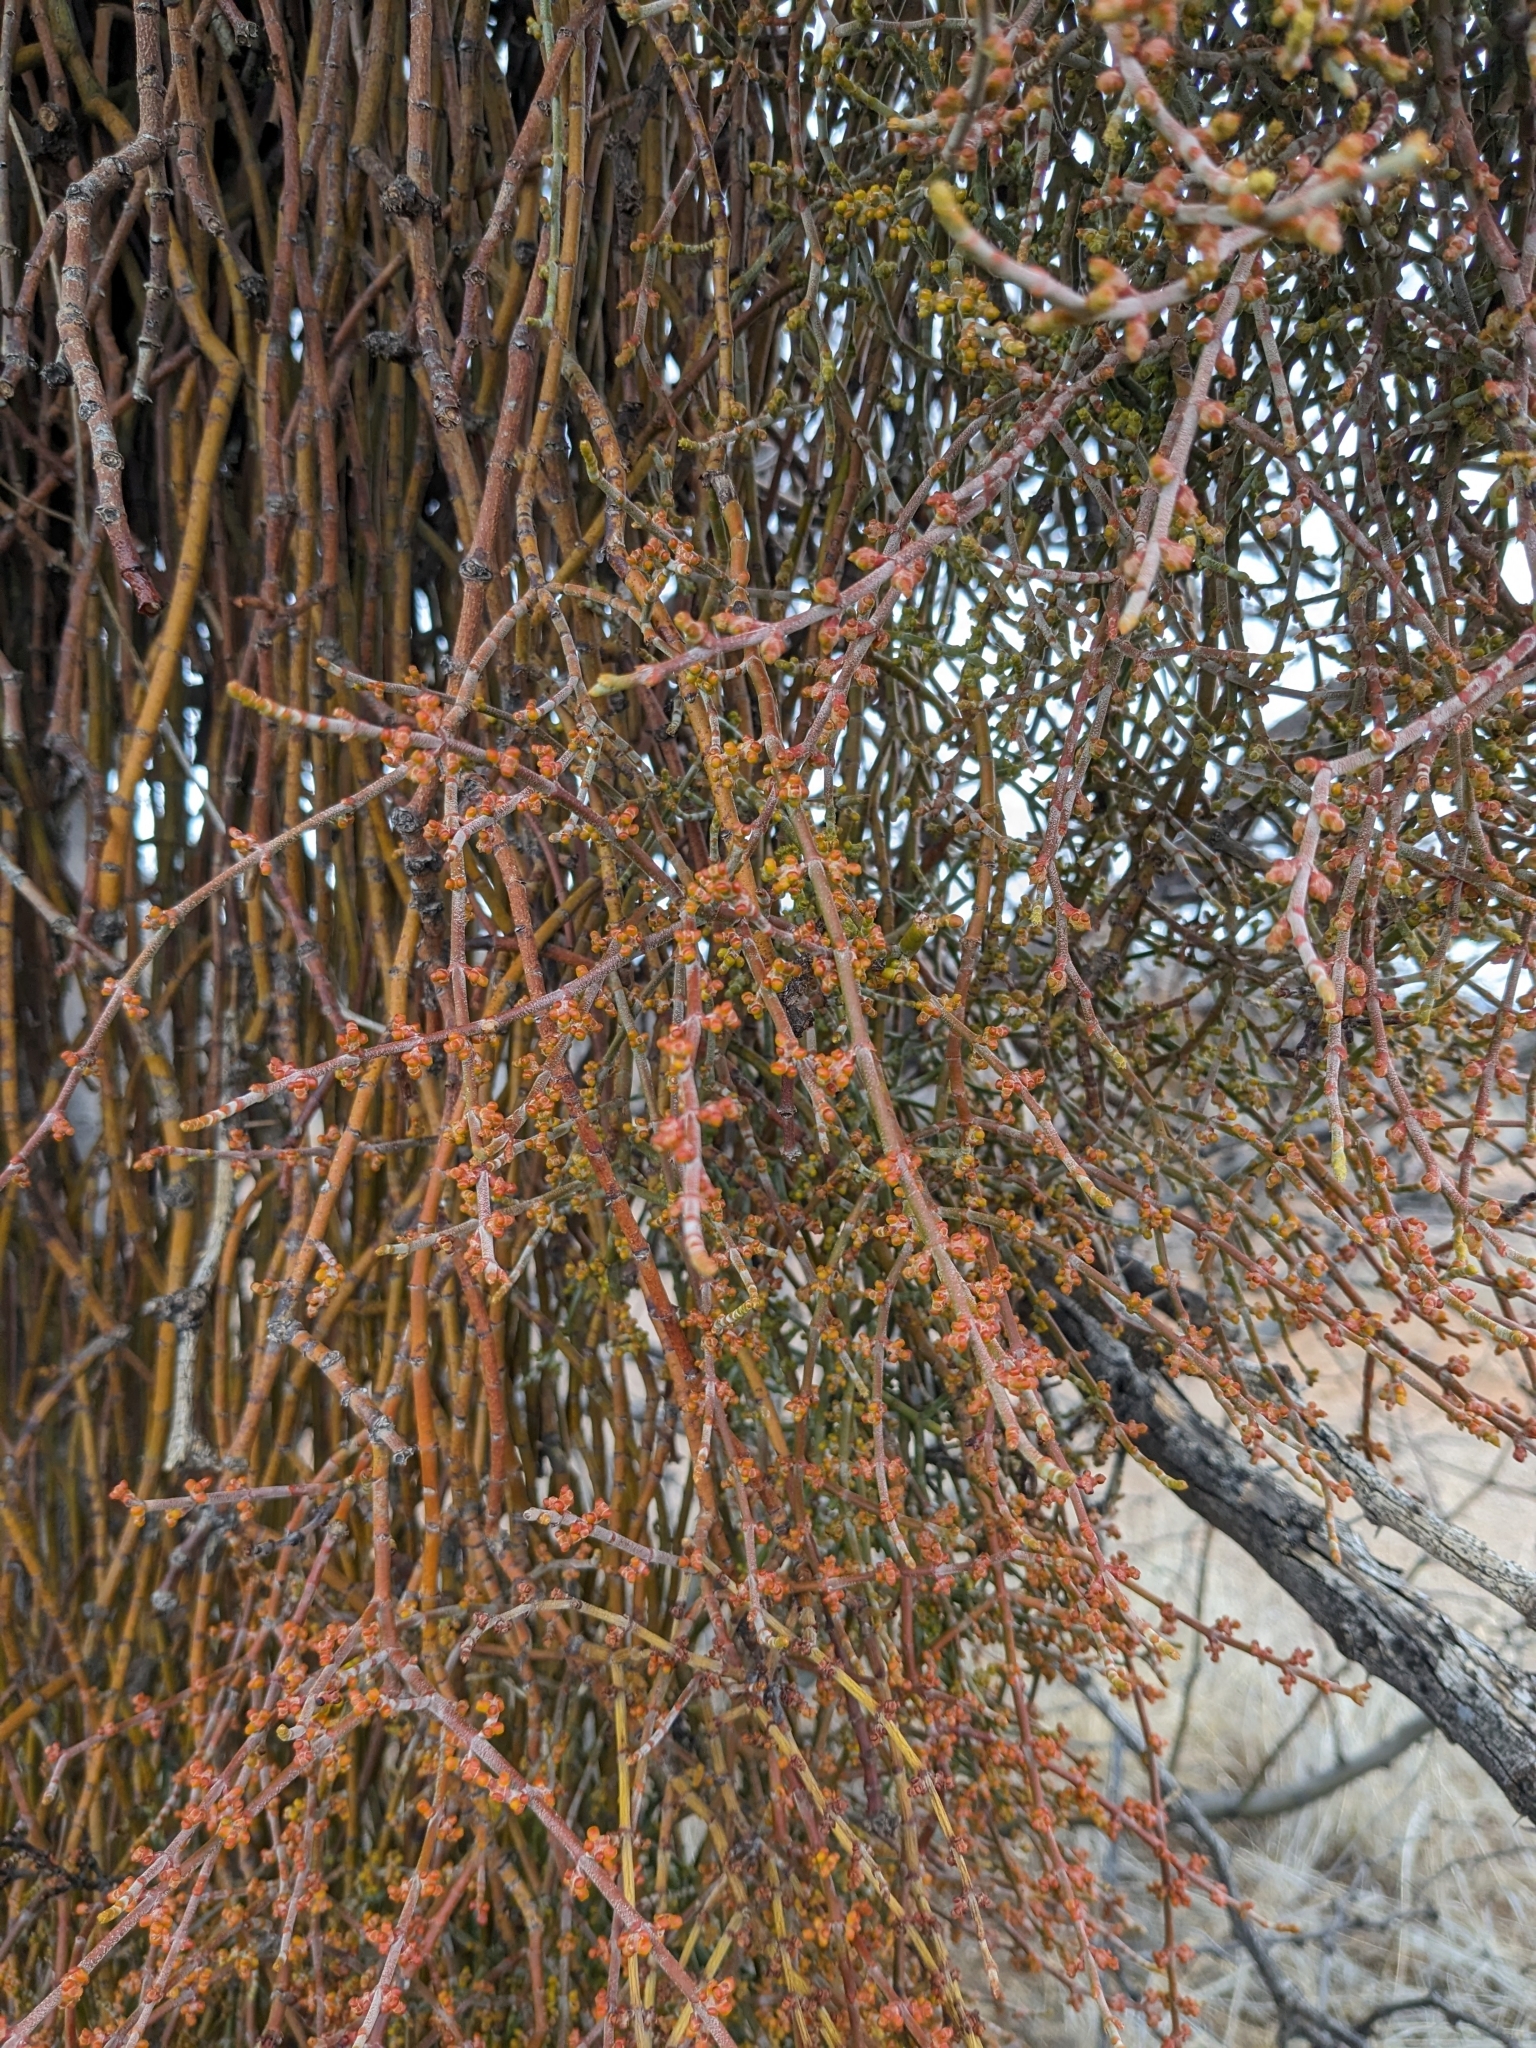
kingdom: Plantae
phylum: Tracheophyta
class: Magnoliopsida
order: Santalales
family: Viscaceae
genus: Phoradendron
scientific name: Phoradendron californicum
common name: Acacia mistletoe
